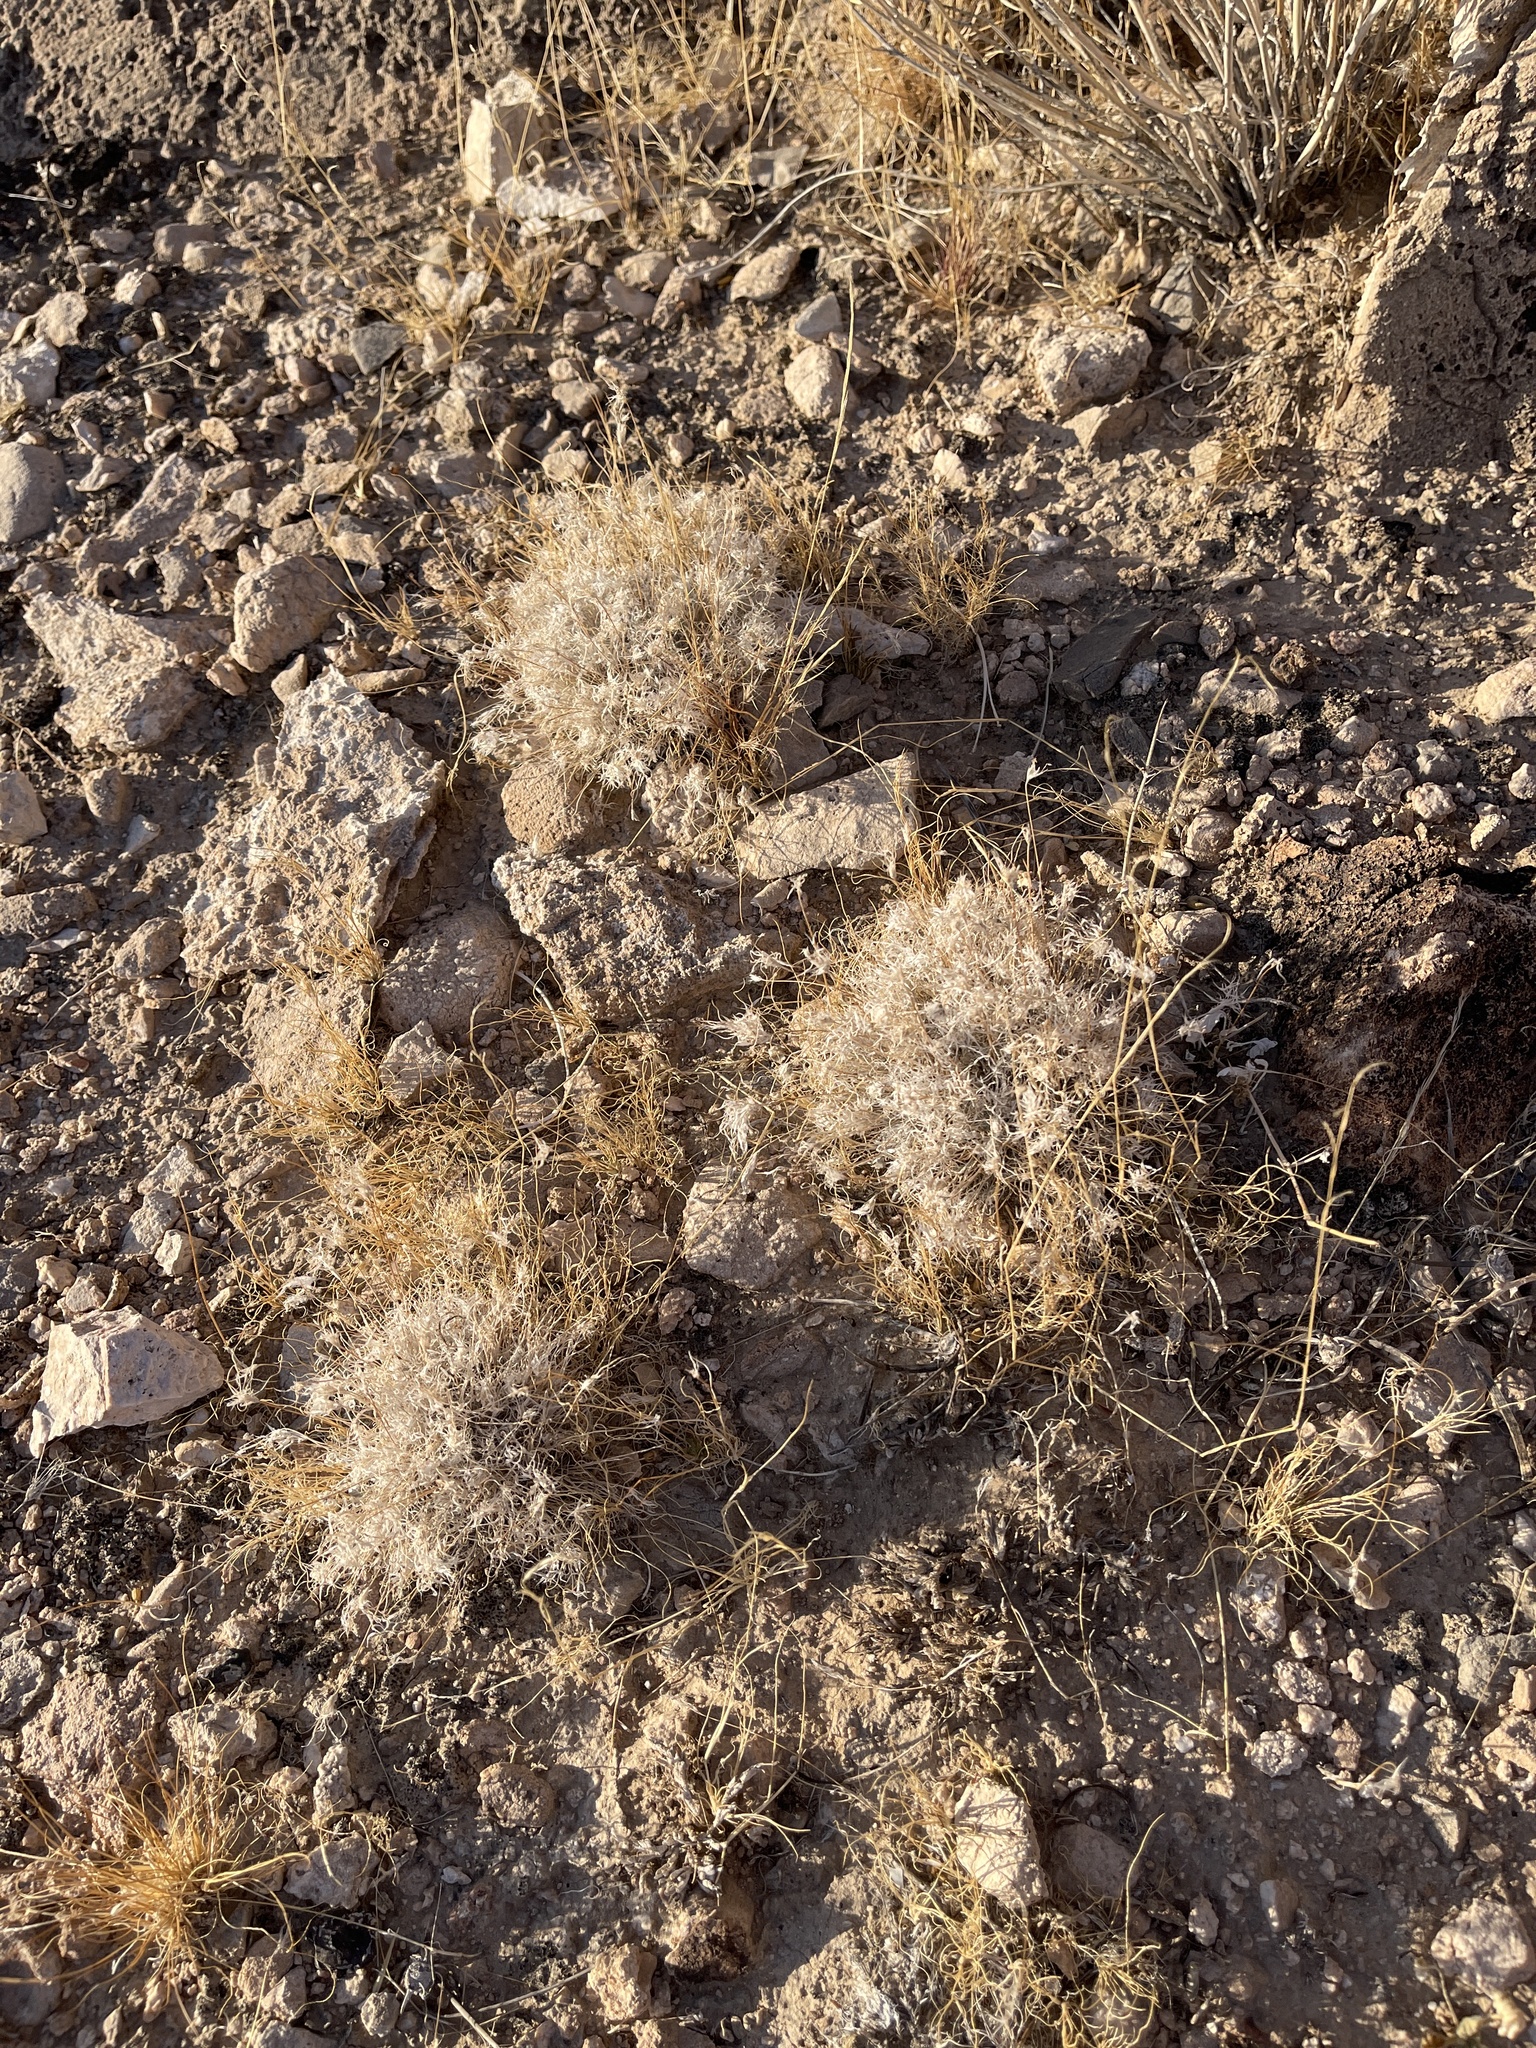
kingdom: Plantae
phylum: Tracheophyta
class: Liliopsida
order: Poales
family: Poaceae
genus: Dasyochloa
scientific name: Dasyochloa pulchella
